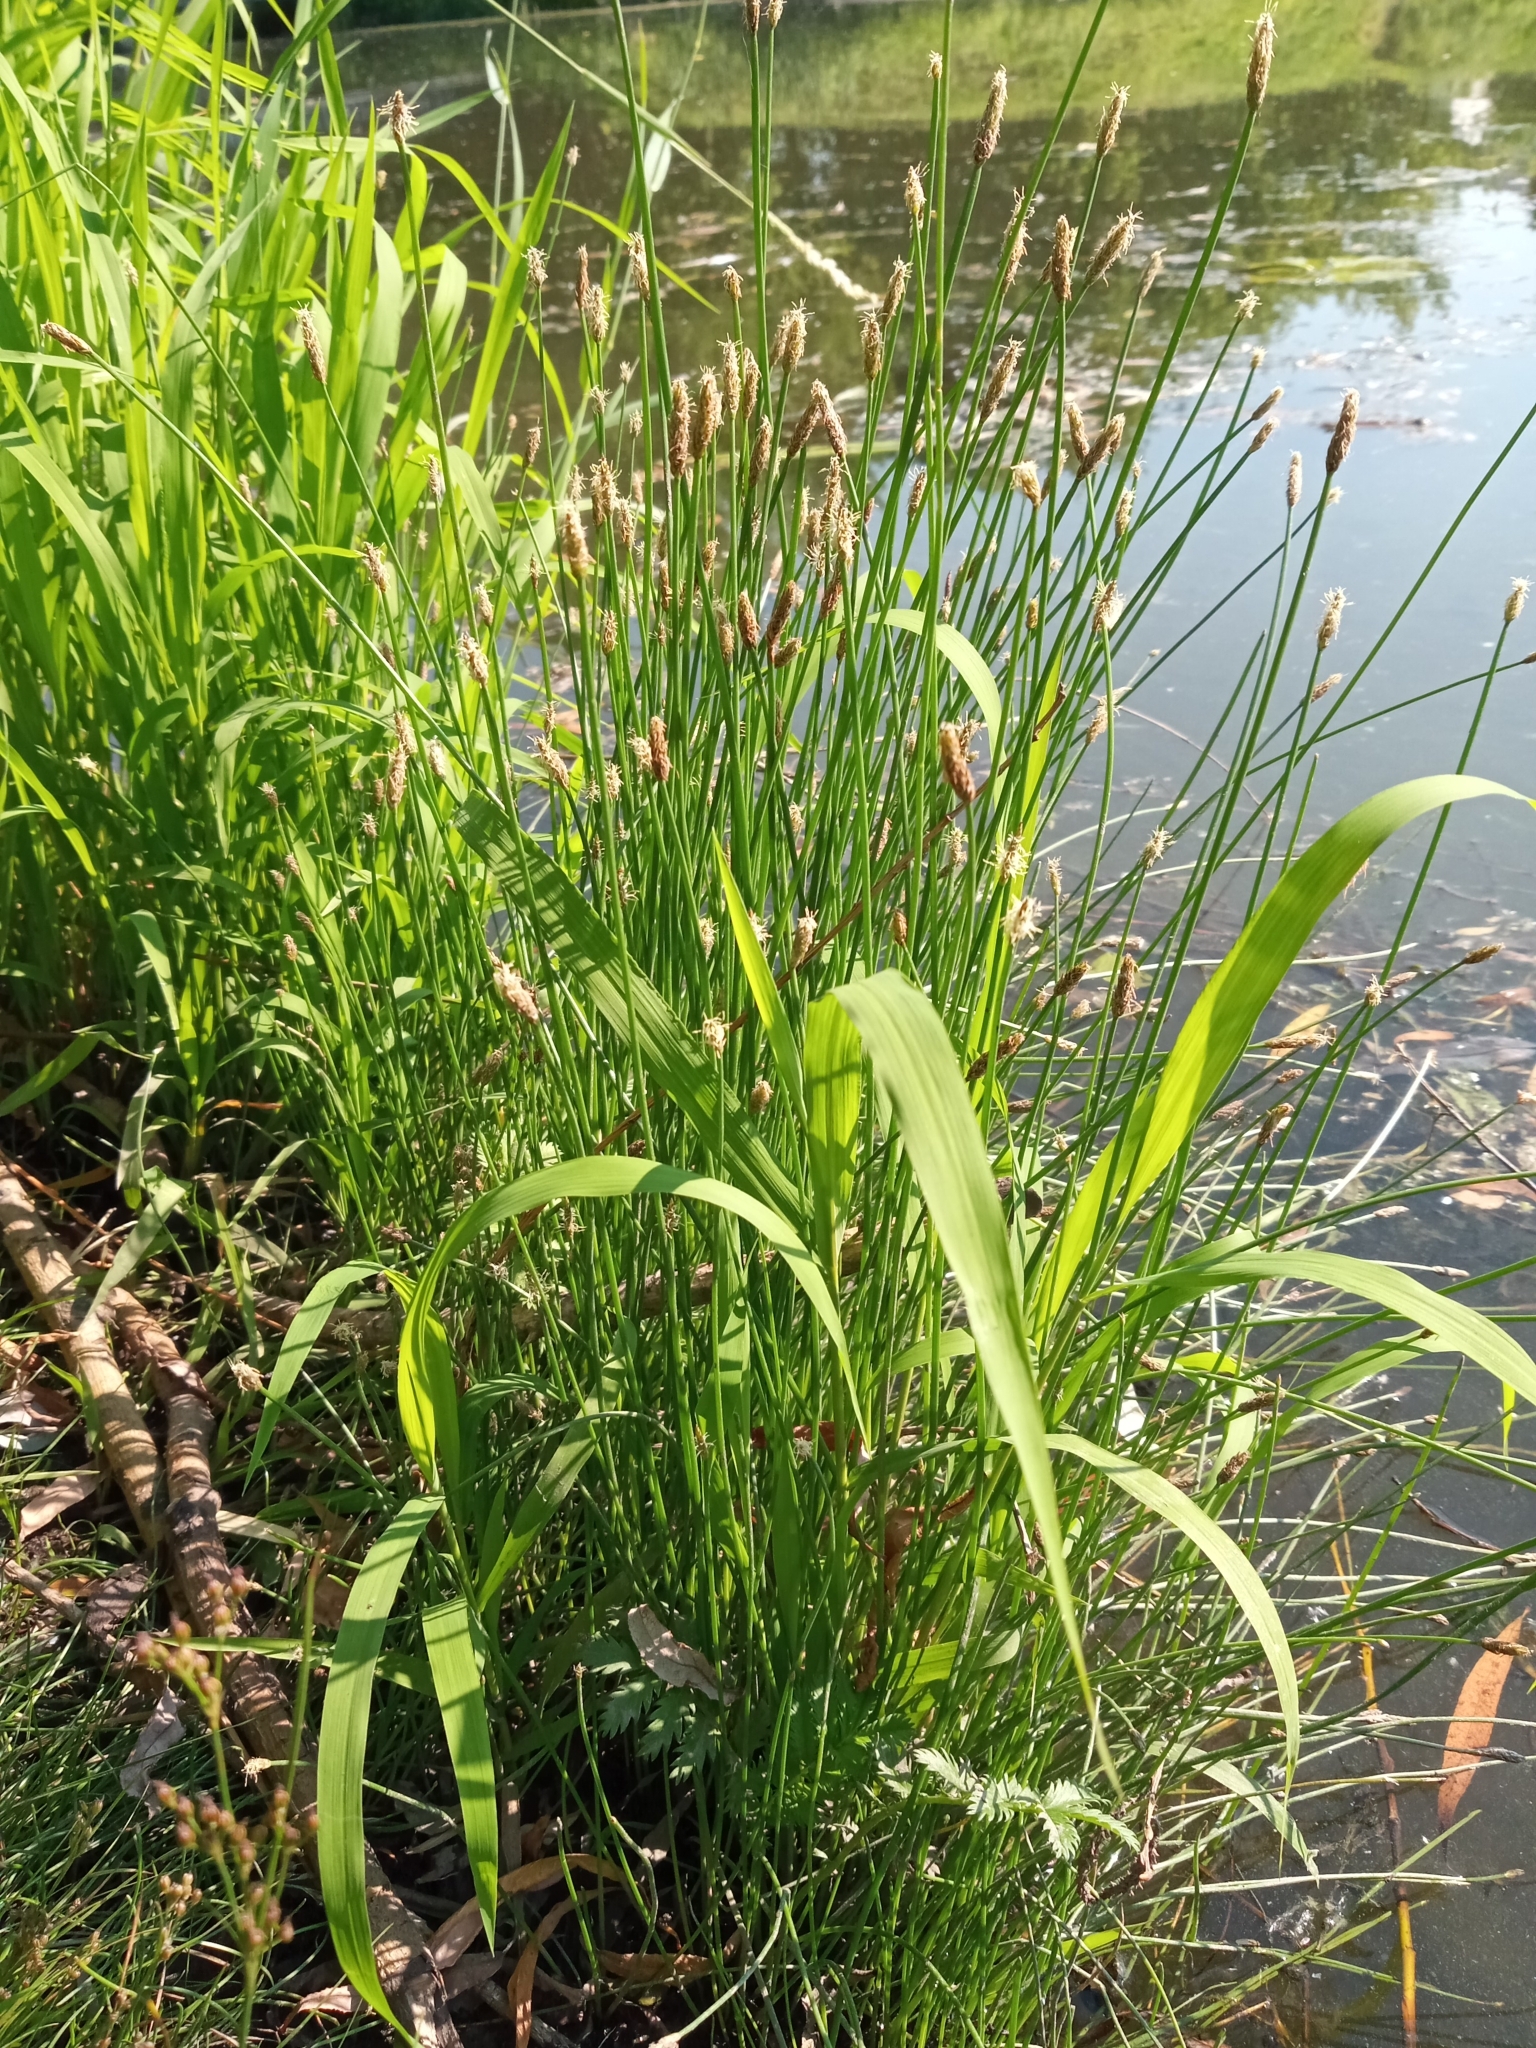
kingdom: Plantae
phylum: Tracheophyta
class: Liliopsida
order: Poales
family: Cyperaceae
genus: Eleocharis
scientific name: Eleocharis palustris
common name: Common spike-rush
